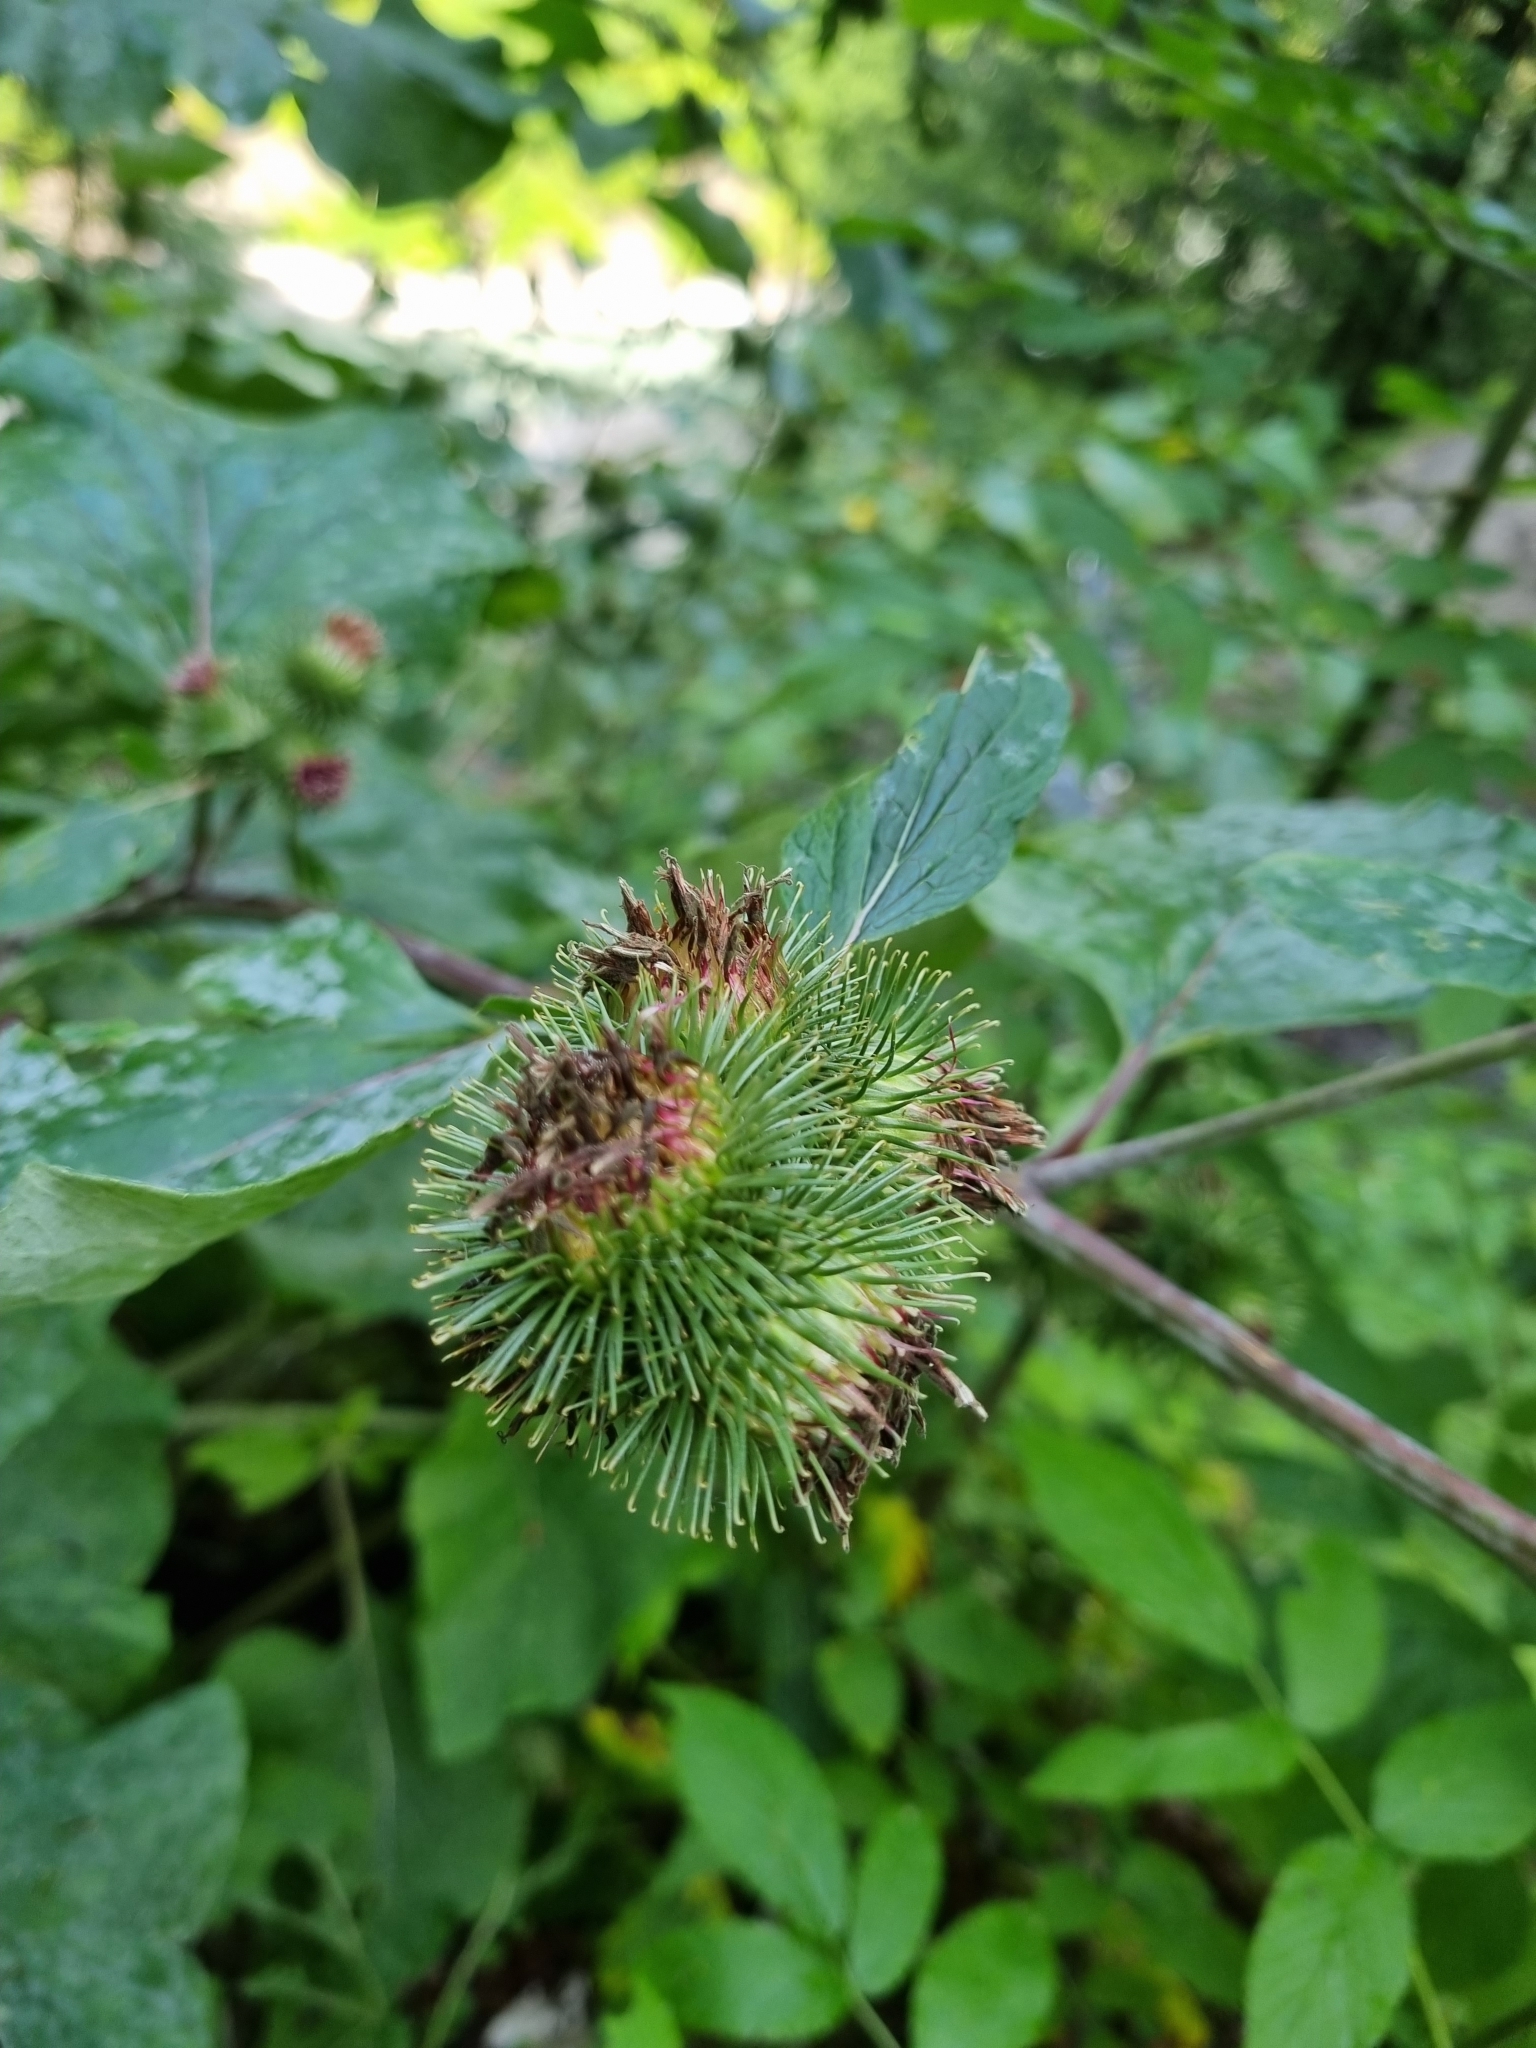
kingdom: Plantae
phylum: Tracheophyta
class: Magnoliopsida
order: Asterales
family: Asteraceae
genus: Arctium
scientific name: Arctium lappa
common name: Greater burdock
